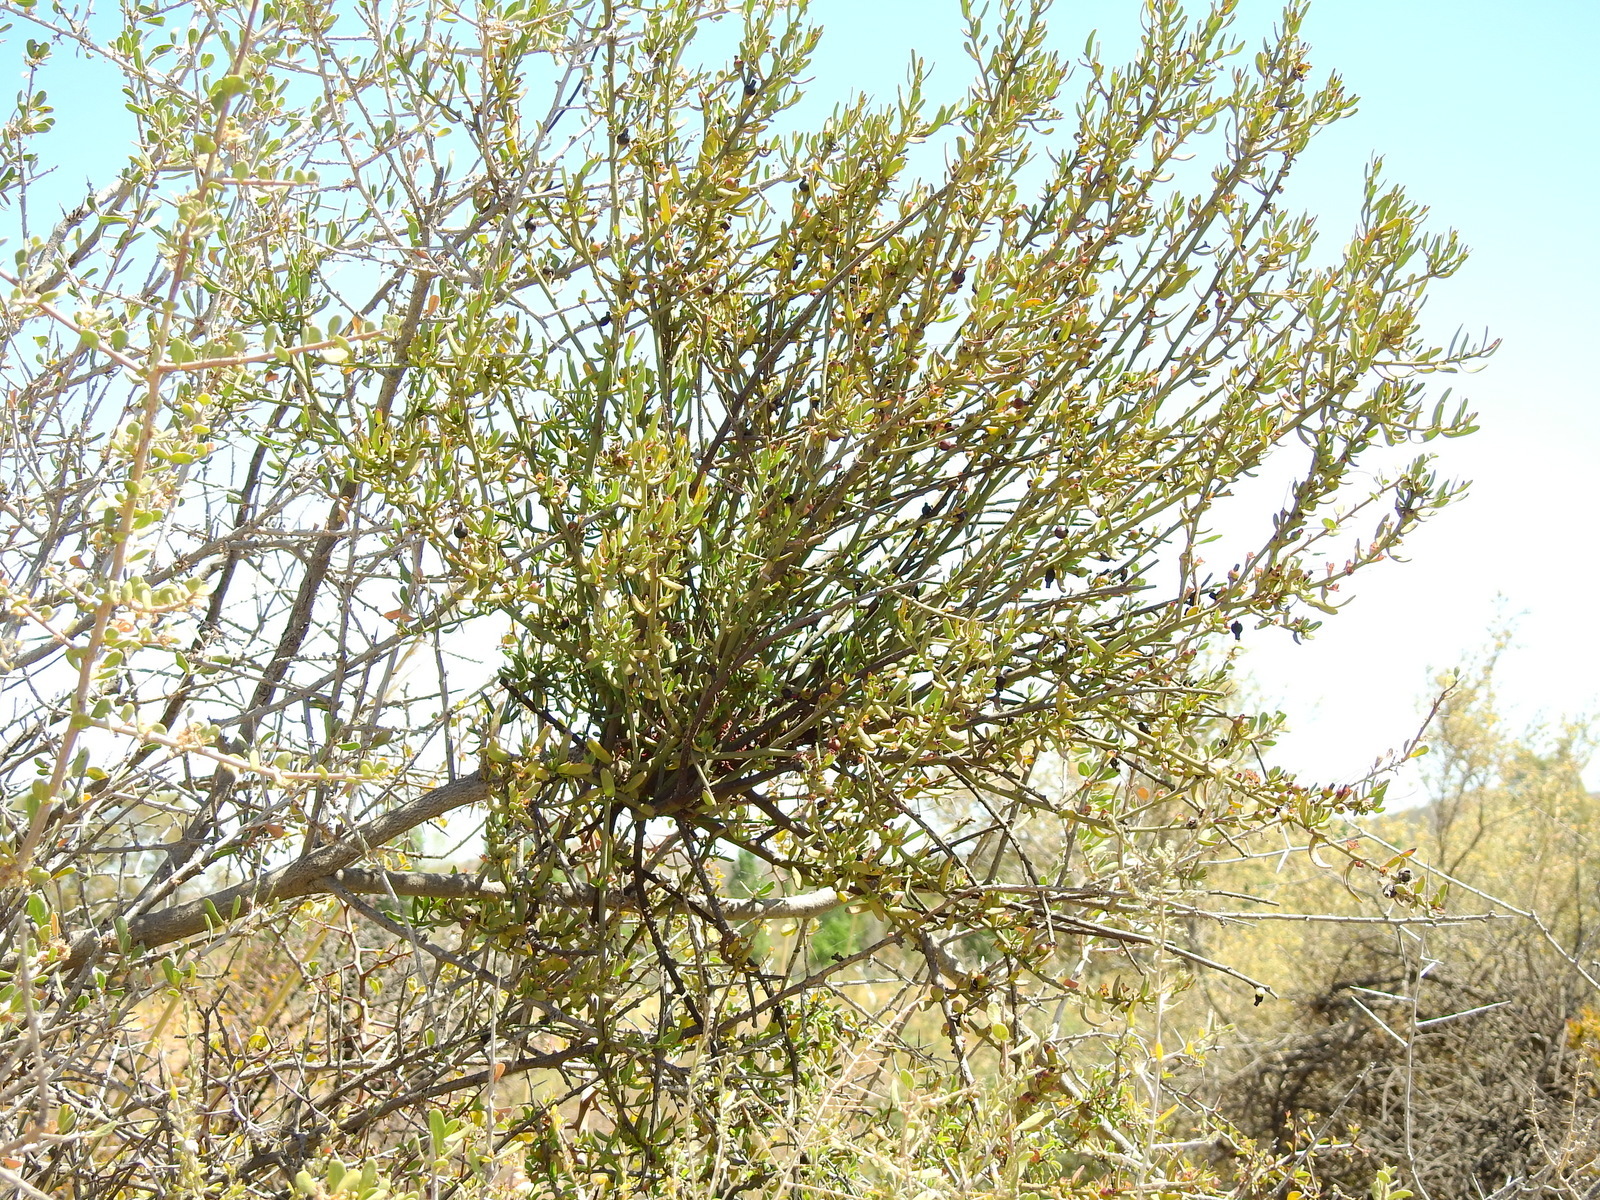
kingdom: Plantae
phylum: Tracheophyta
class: Magnoliopsida
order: Santalales
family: Loranthaceae
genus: Ligaria
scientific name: Ligaria cuneifolia
